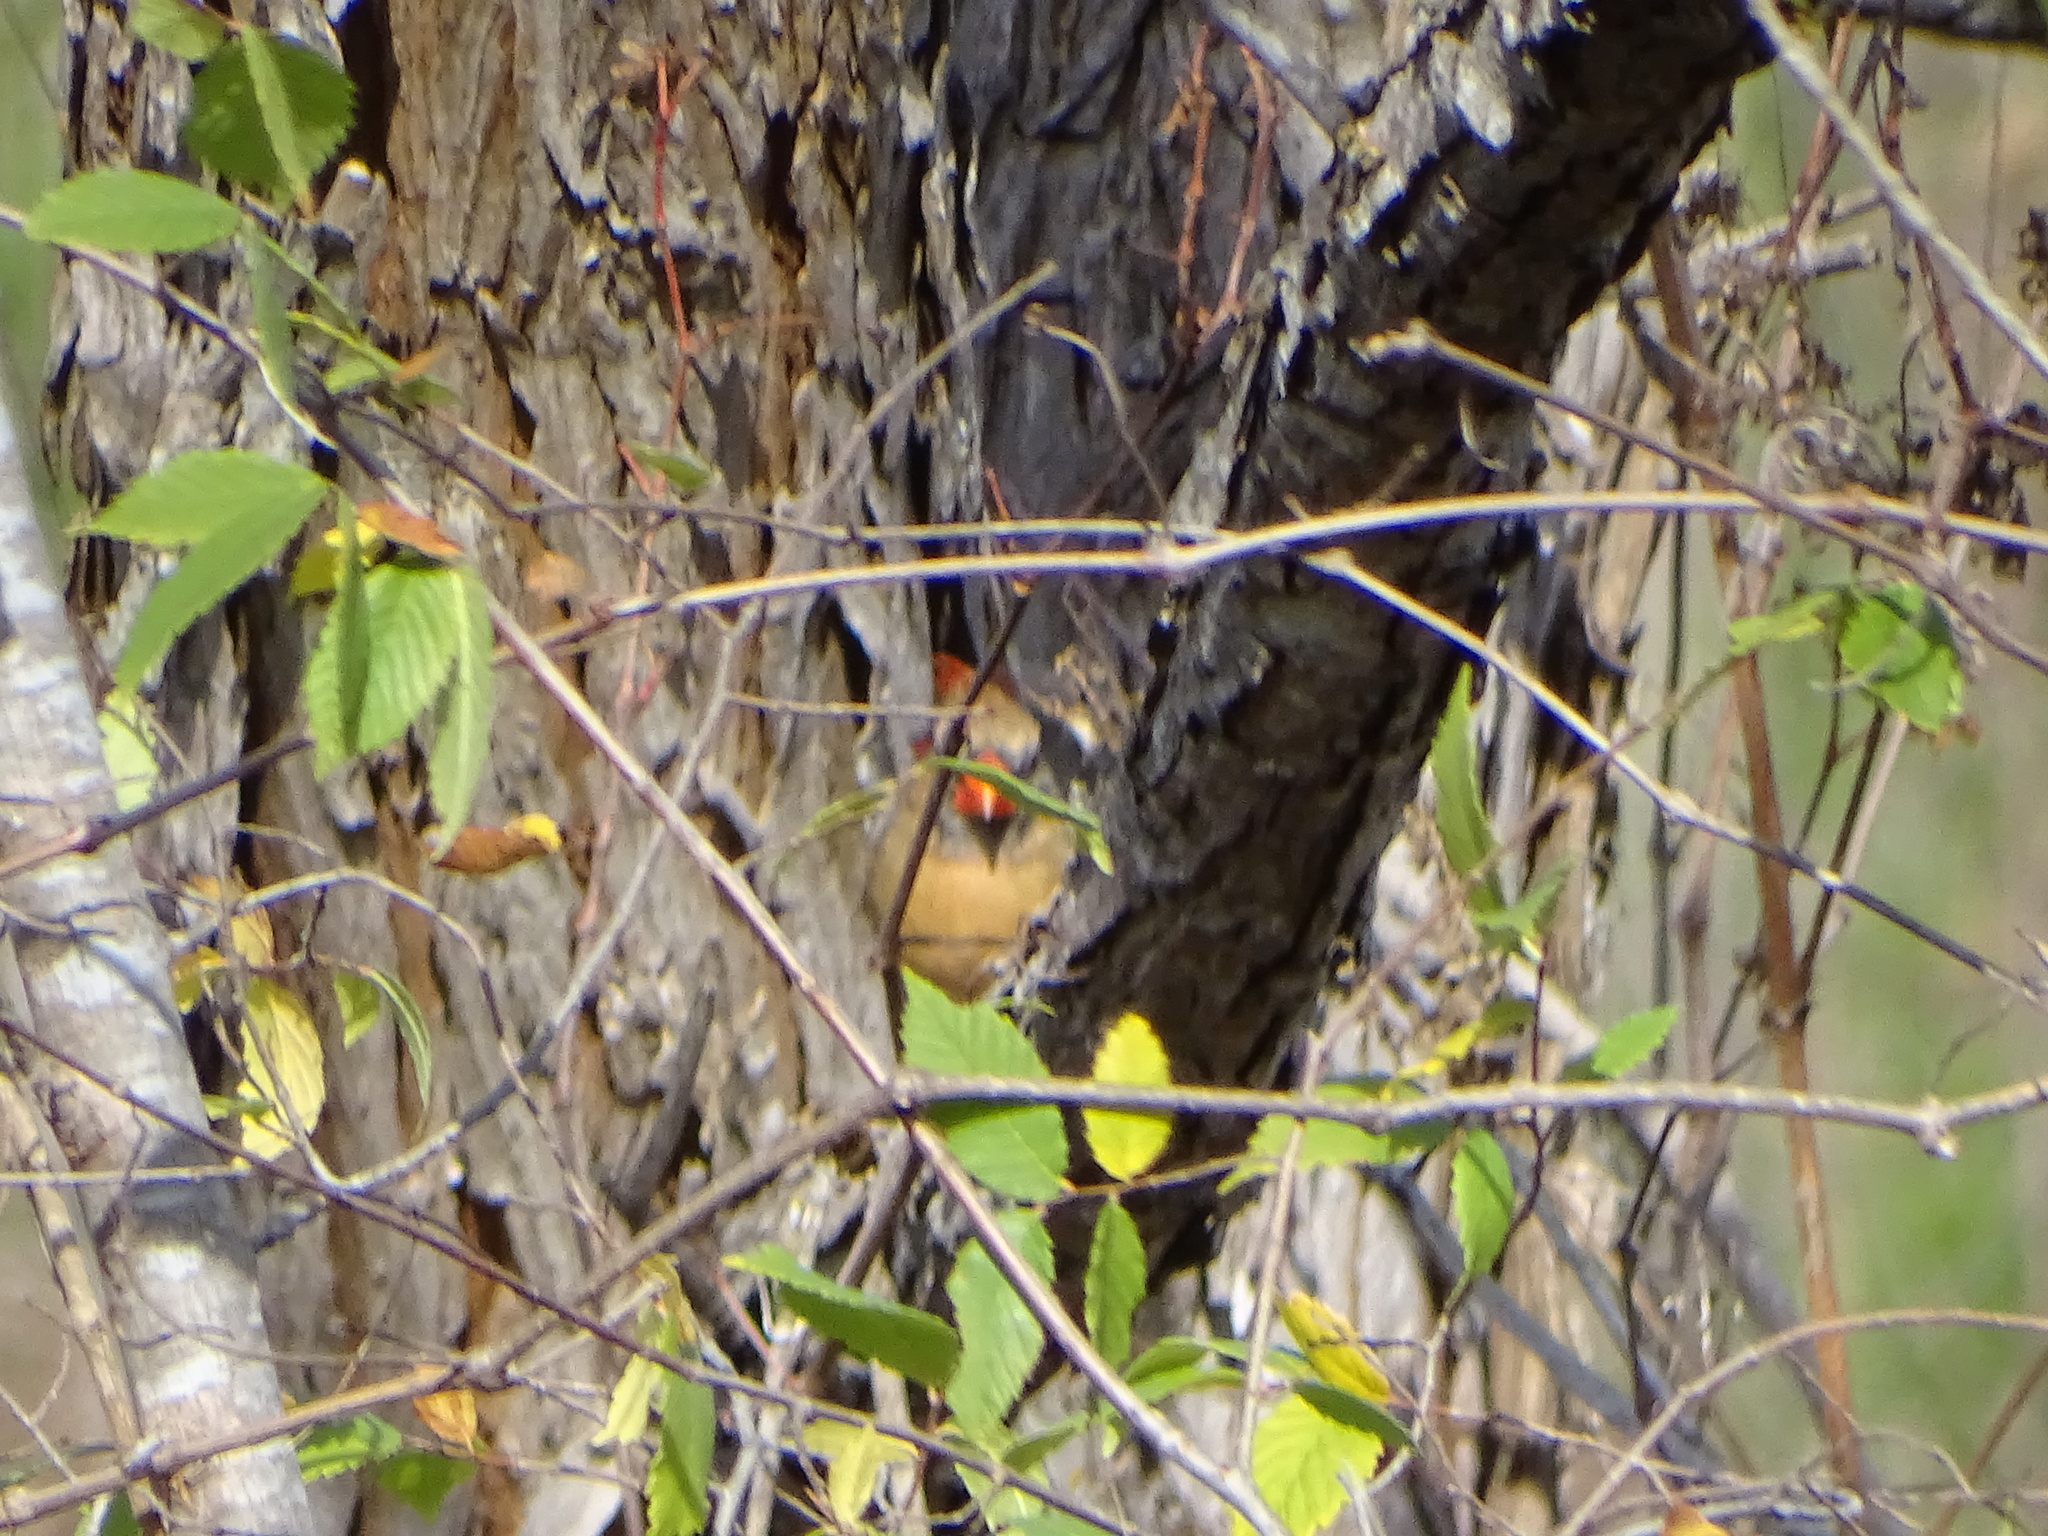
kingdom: Animalia
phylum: Chordata
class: Aves
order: Passeriformes
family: Cardinalidae
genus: Cardinalis
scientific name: Cardinalis cardinalis
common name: Northern cardinal
